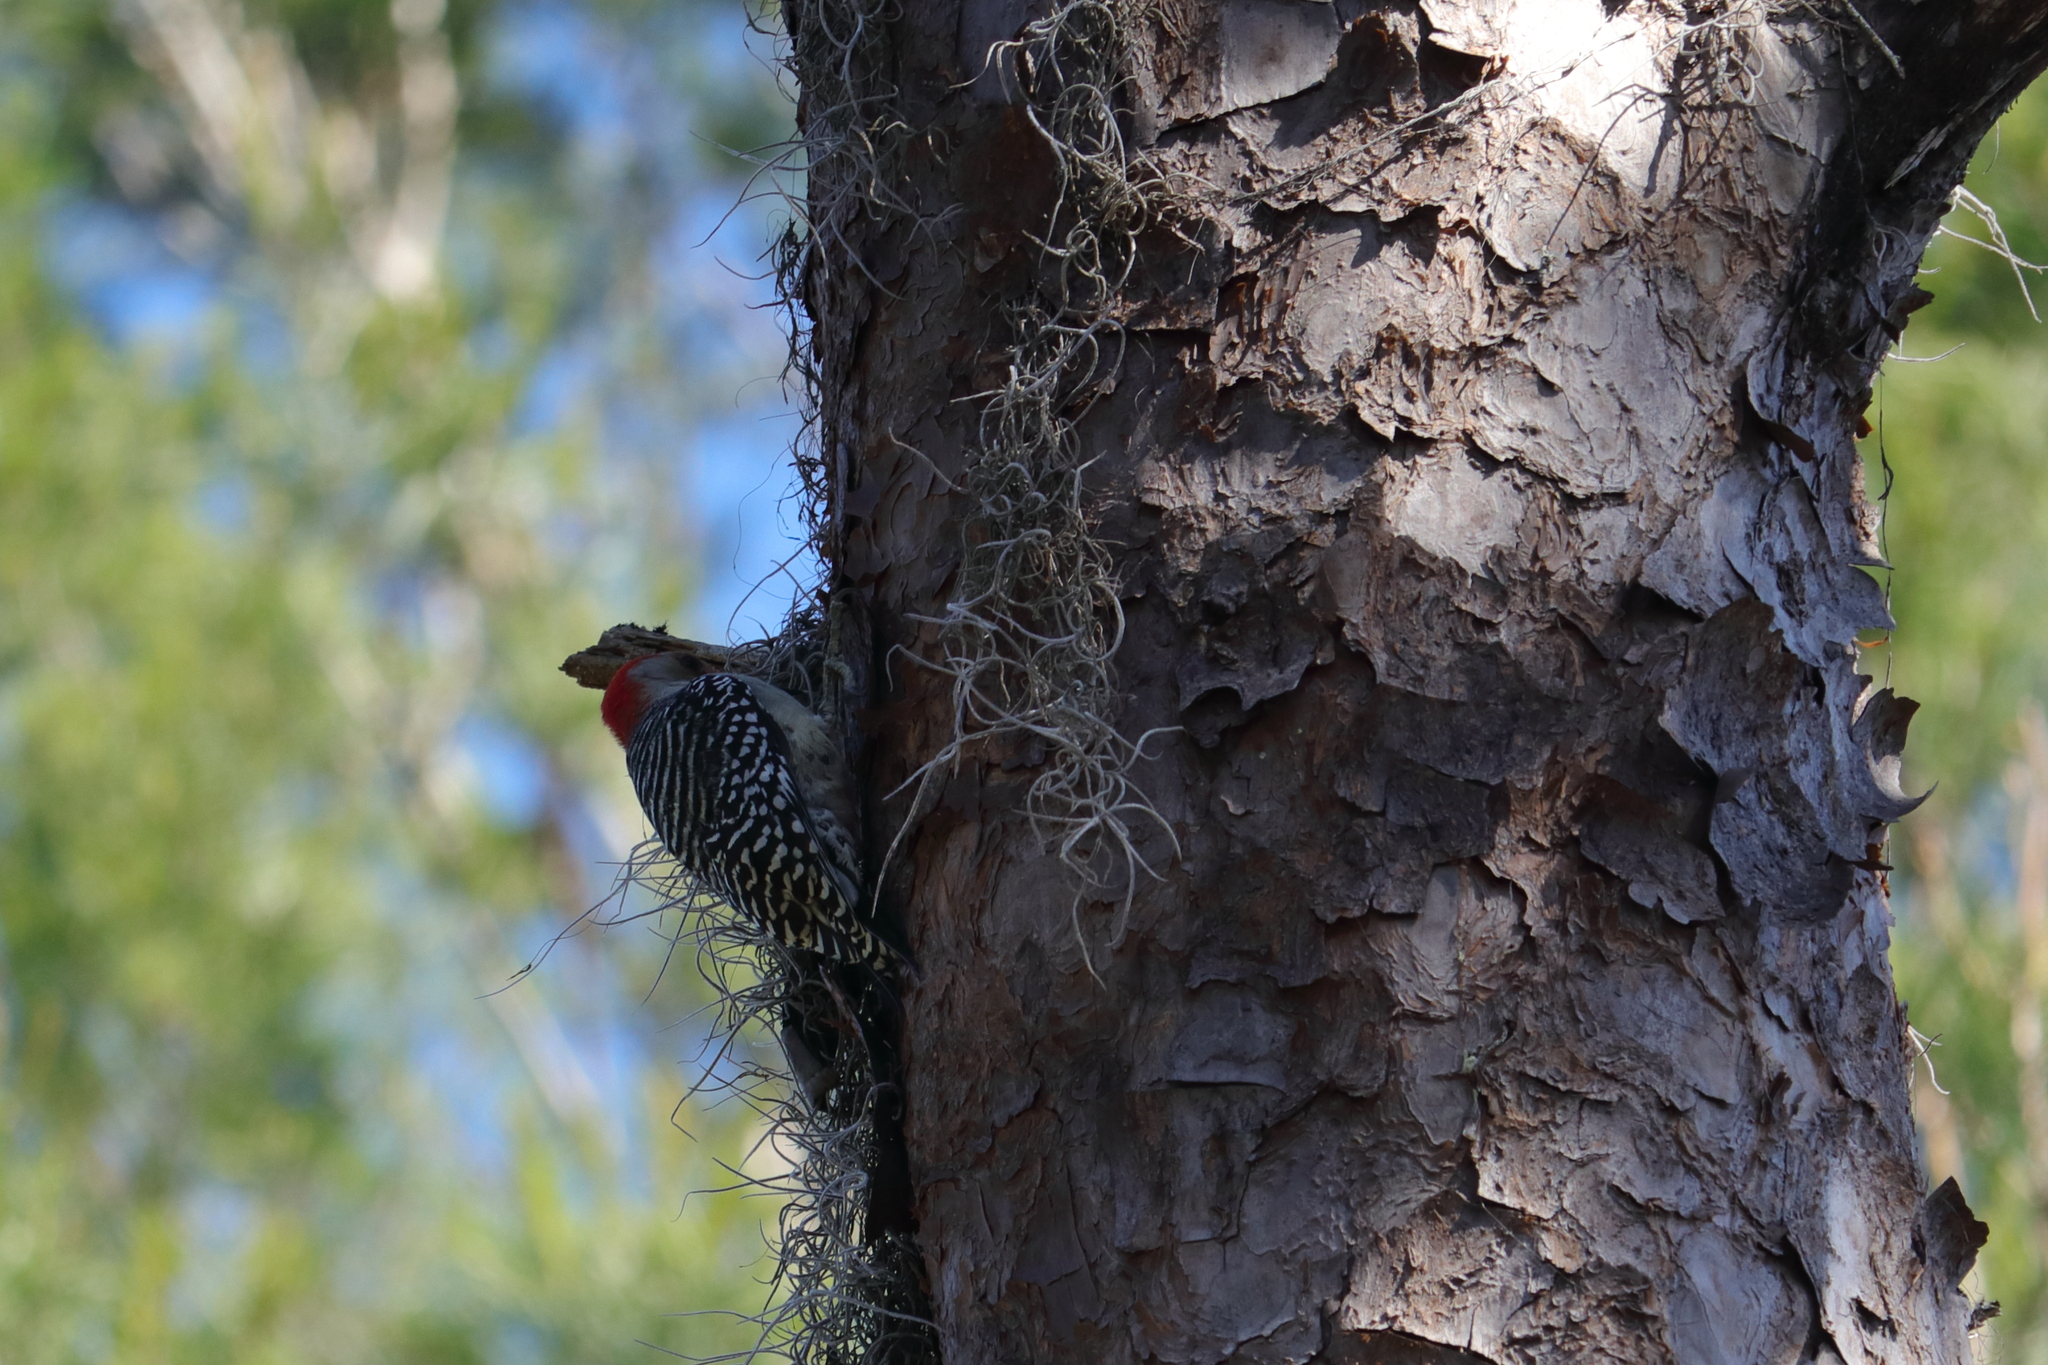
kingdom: Animalia
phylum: Chordata
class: Aves
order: Piciformes
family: Picidae
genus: Melanerpes
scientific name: Melanerpes carolinus
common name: Red-bellied woodpecker
